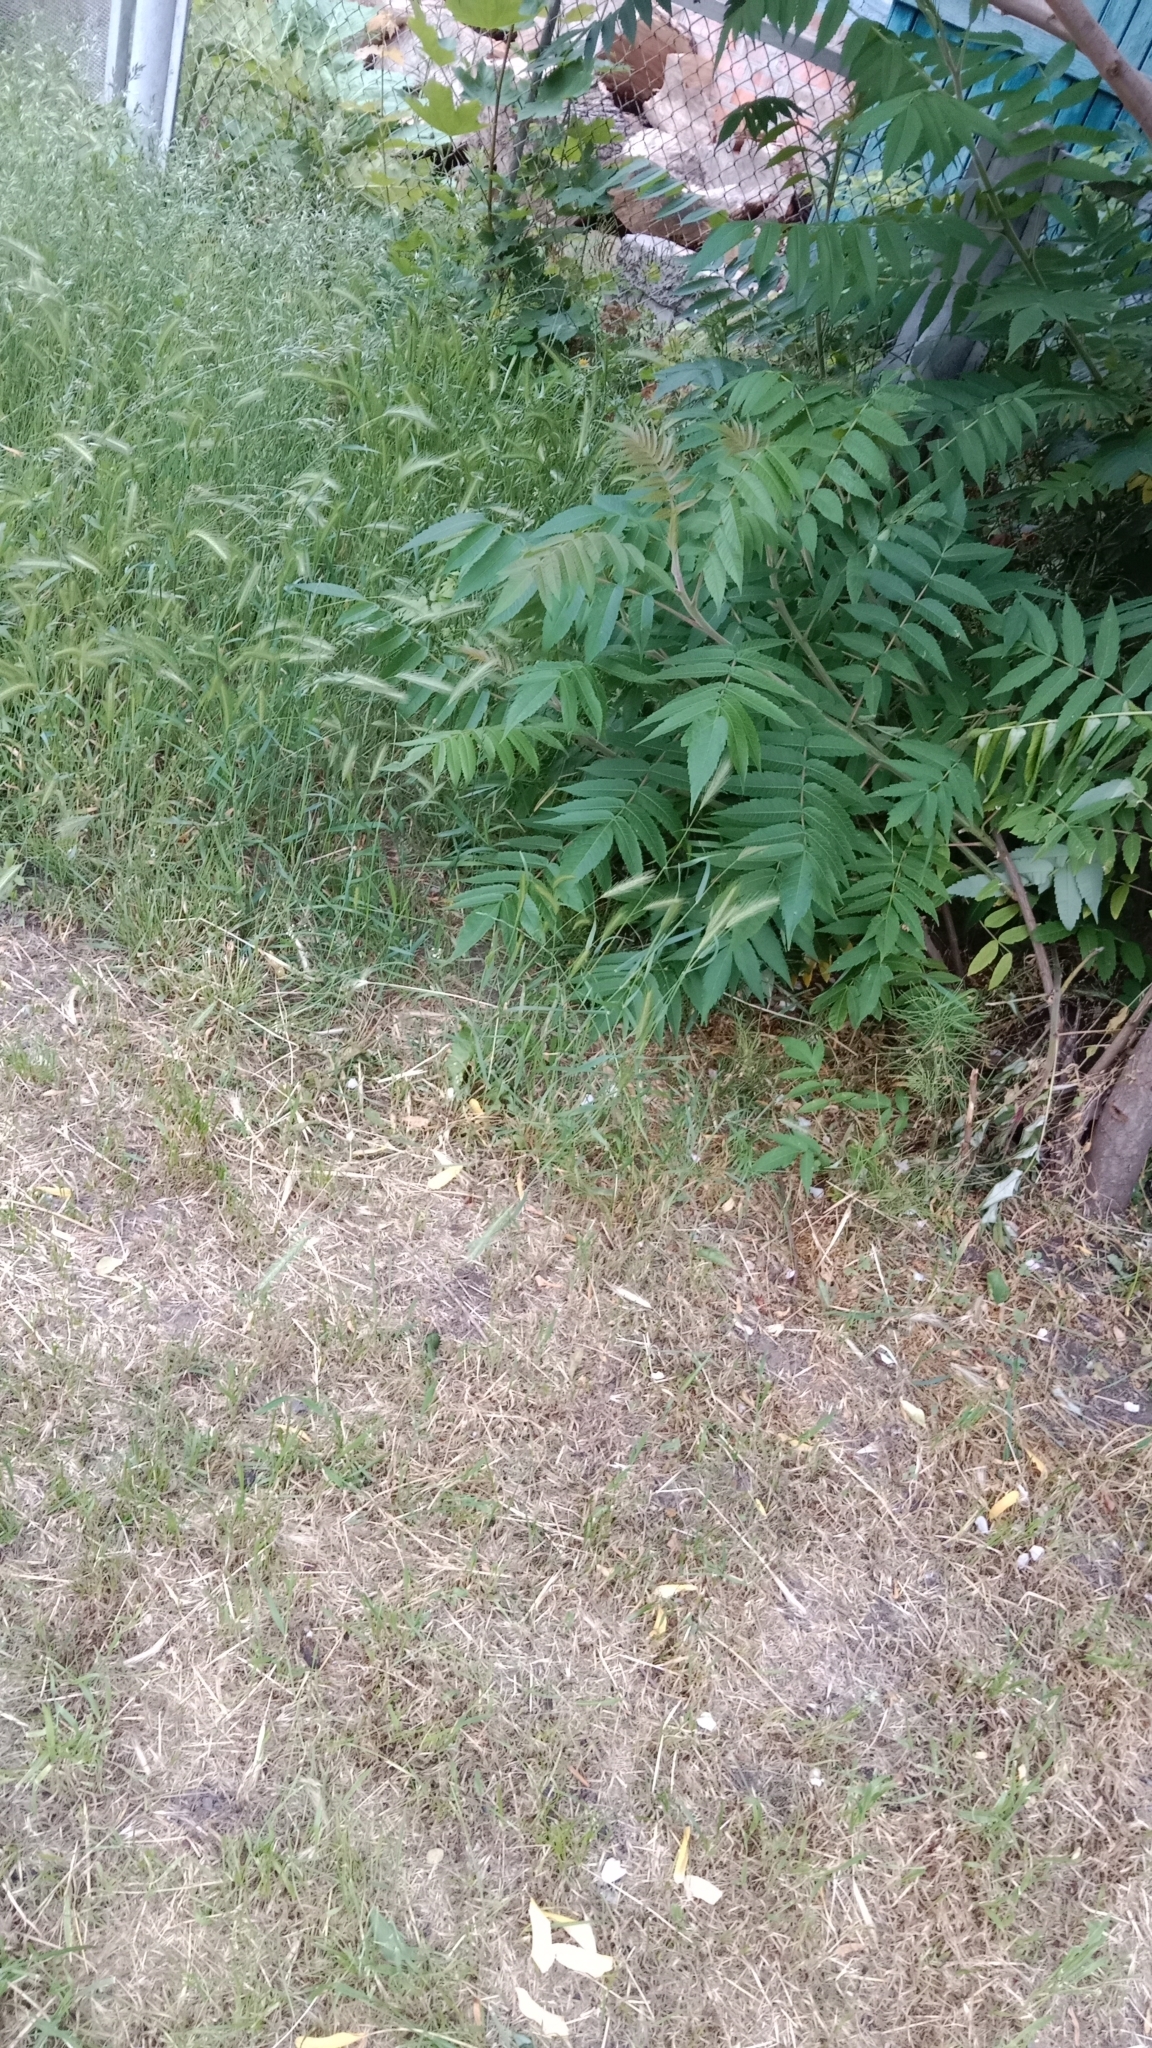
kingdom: Plantae
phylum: Tracheophyta
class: Magnoliopsida
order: Sapindales
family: Simaroubaceae
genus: Ailanthus
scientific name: Ailanthus altissima
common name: Tree-of-heaven
